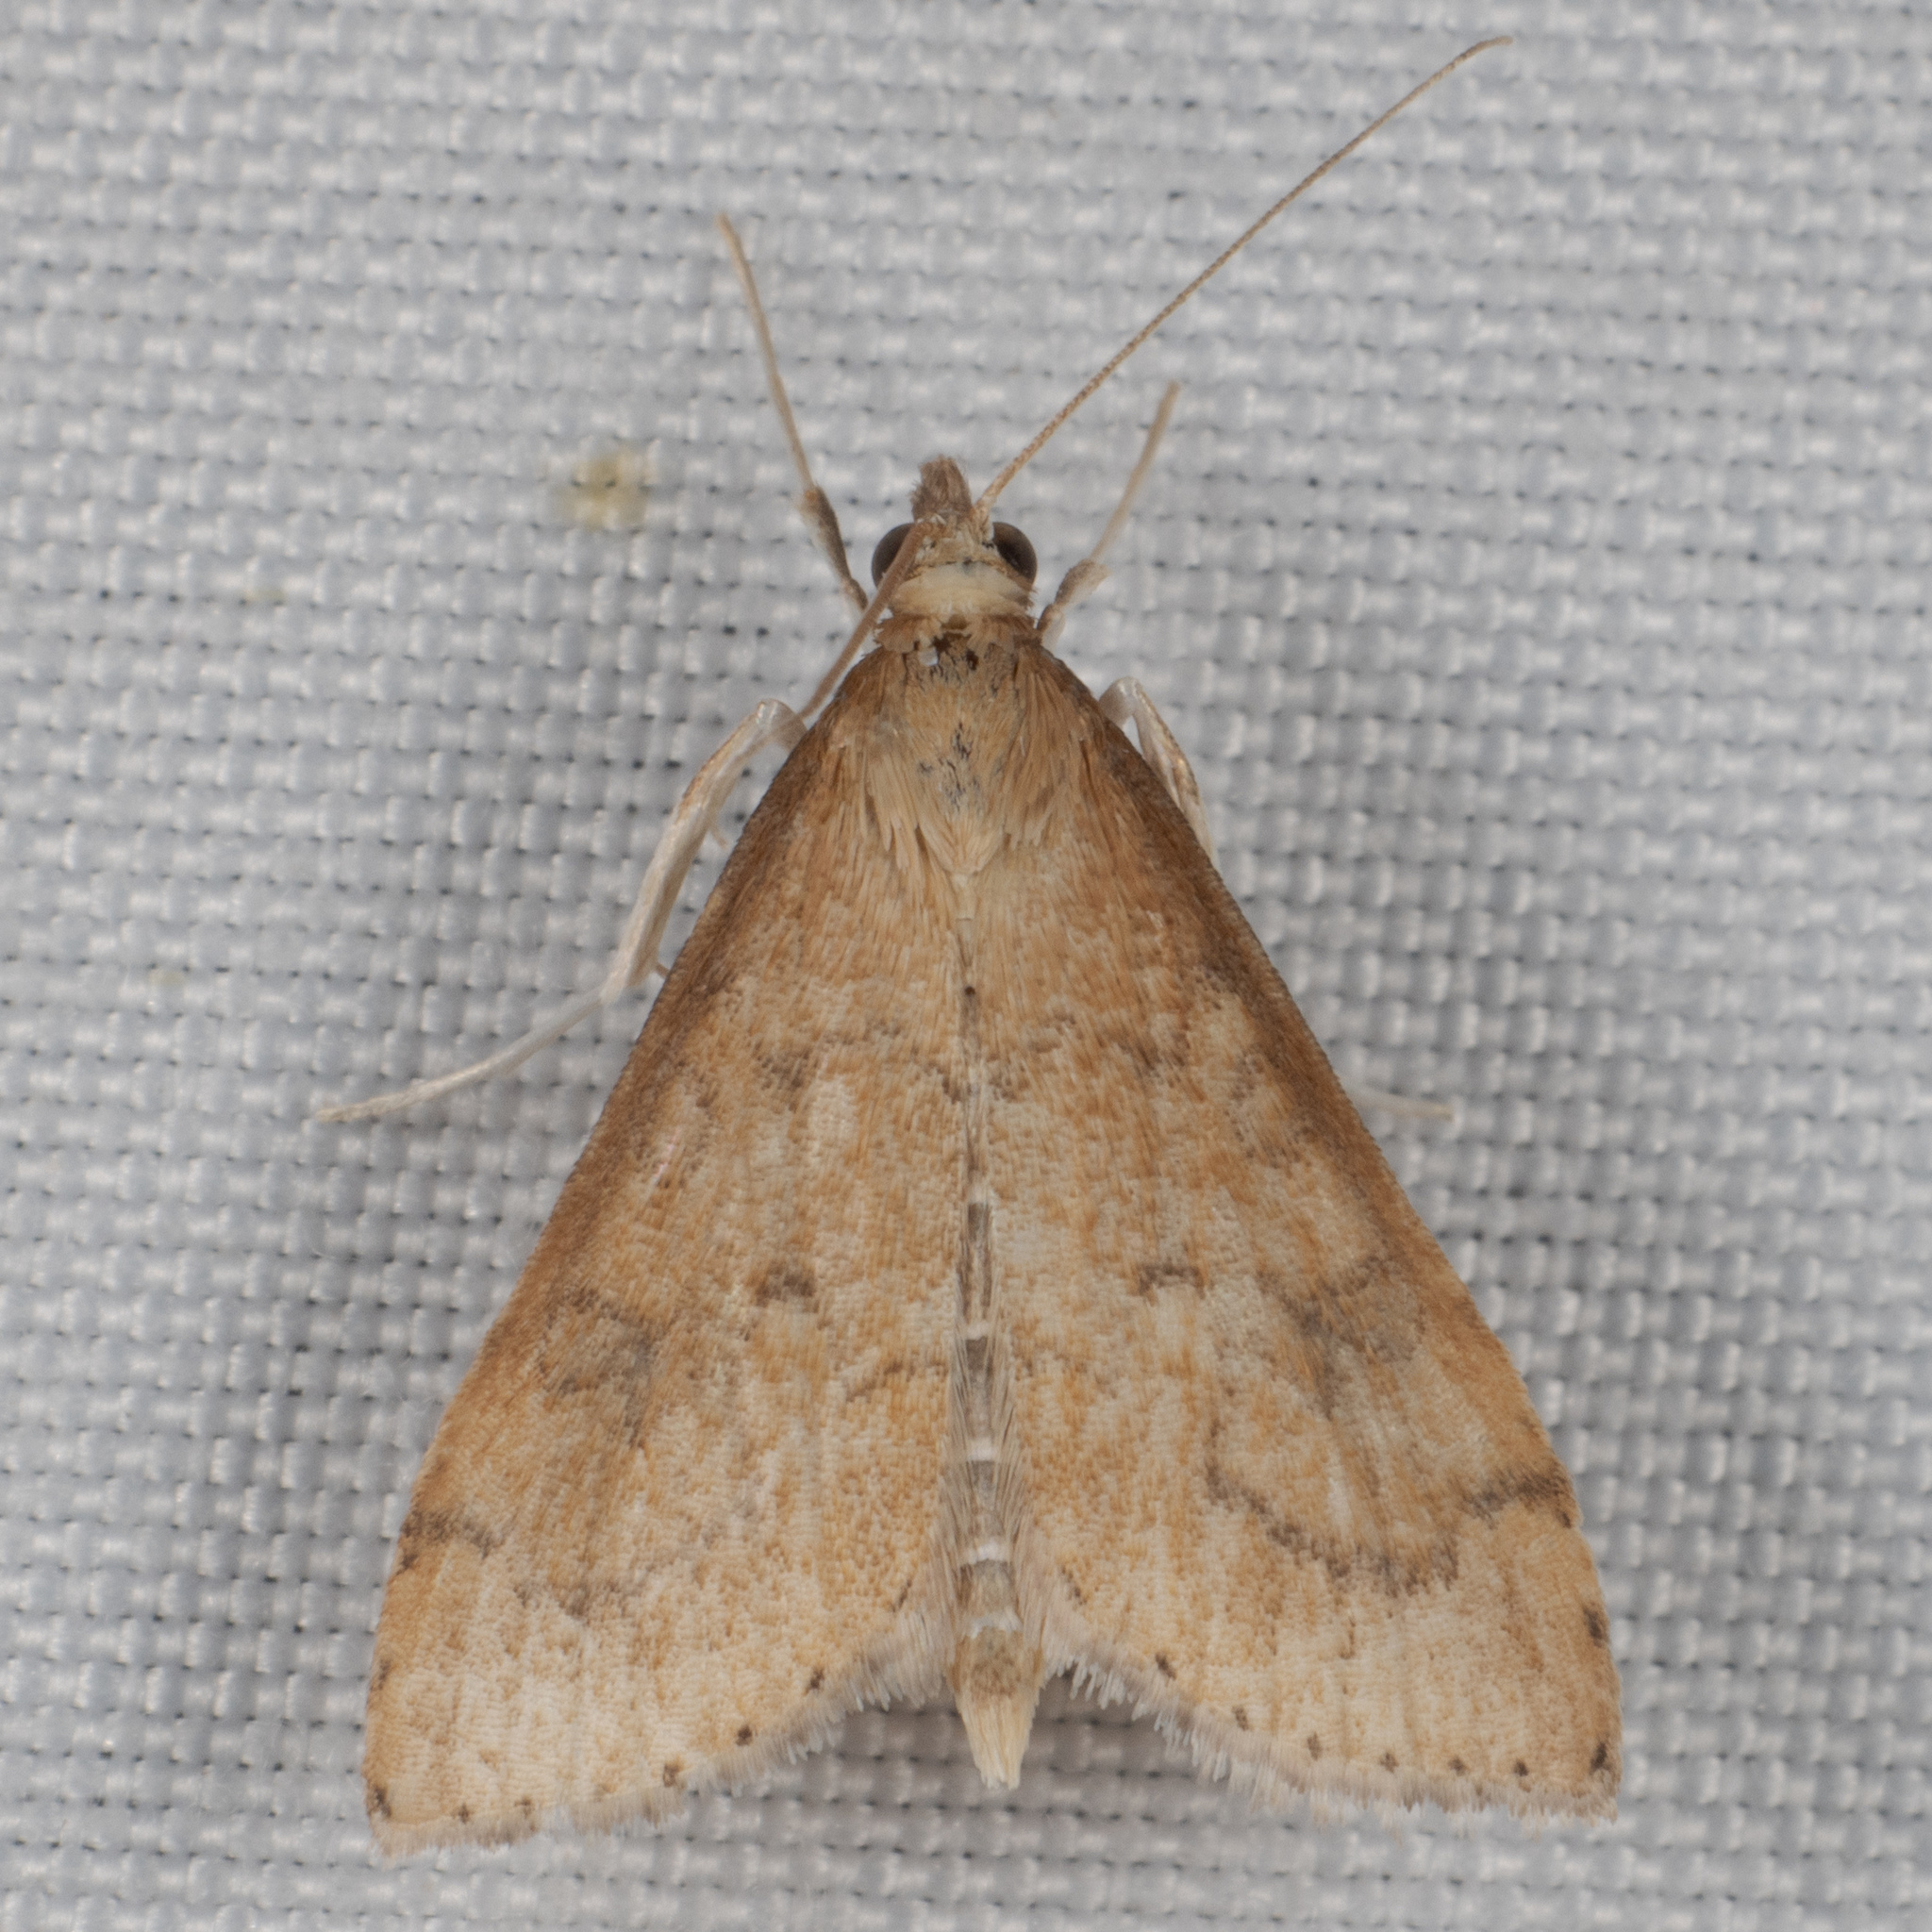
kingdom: Animalia
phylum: Arthropoda
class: Insecta
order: Lepidoptera
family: Crambidae
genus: Udea
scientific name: Udea rubigalis
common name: Celery leaftier moth
